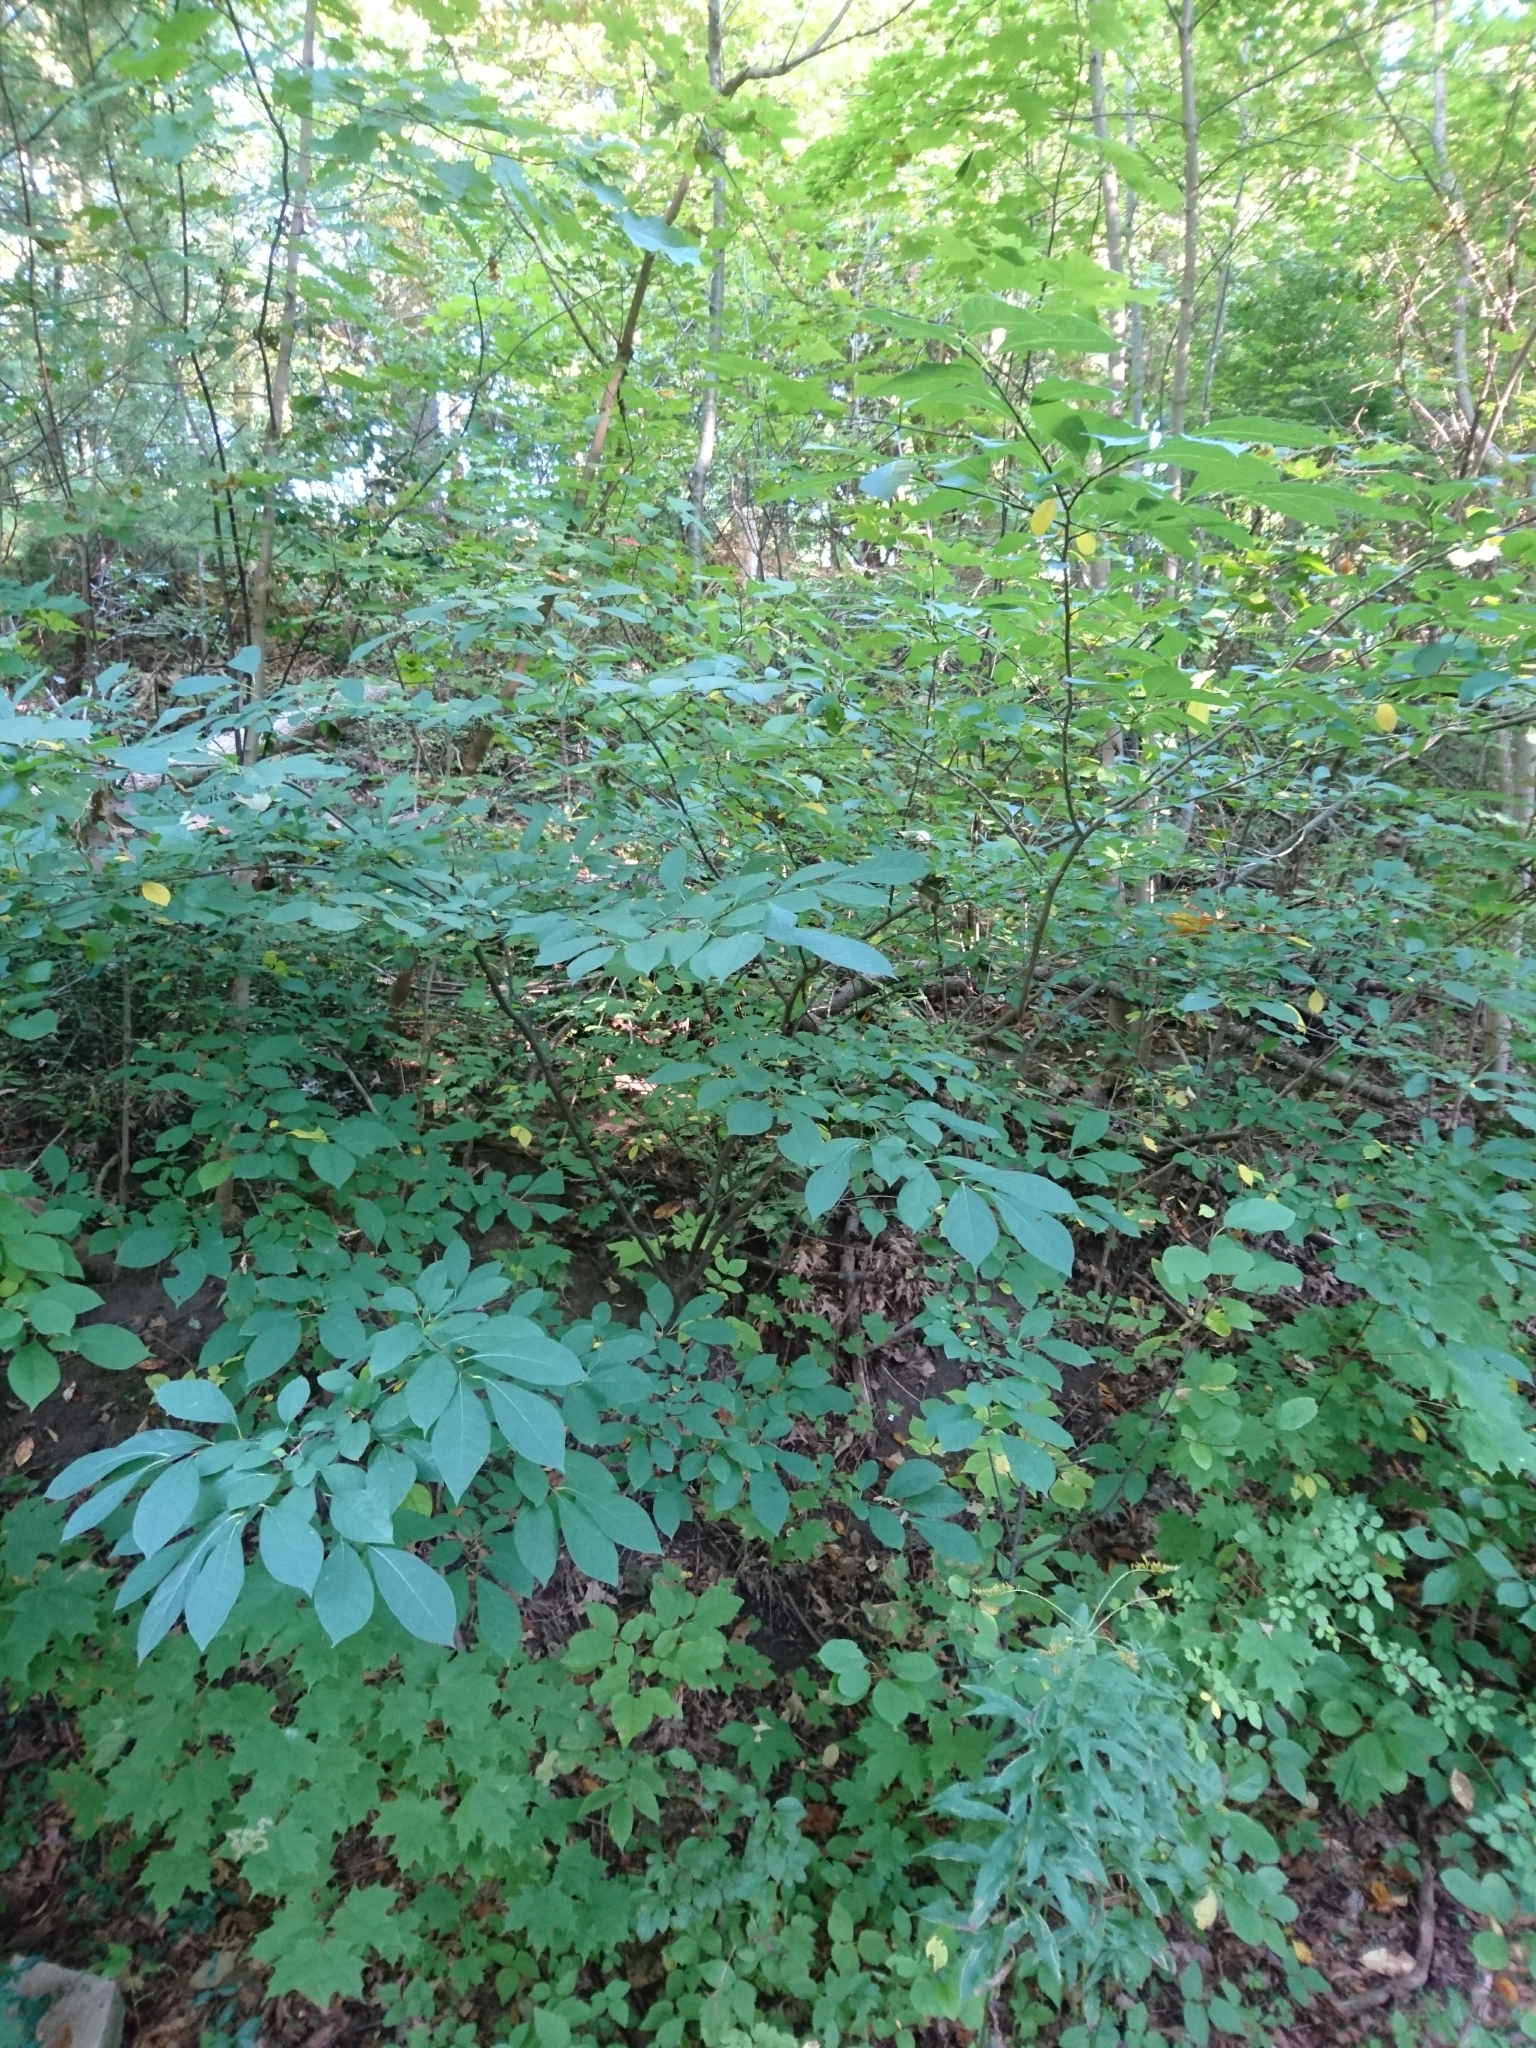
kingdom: Plantae
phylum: Tracheophyta
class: Magnoliopsida
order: Laurales
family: Lauraceae
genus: Lindera
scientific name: Lindera benzoin
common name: Spicebush
